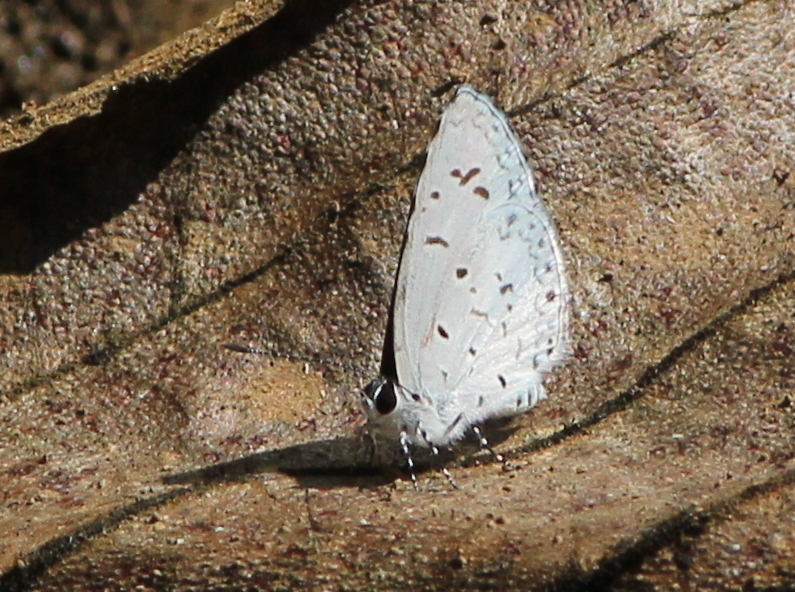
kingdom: Animalia
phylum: Arthropoda
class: Insecta
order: Lepidoptera
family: Lycaenidae
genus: Acytolepis
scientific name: Acytolepis puspa
